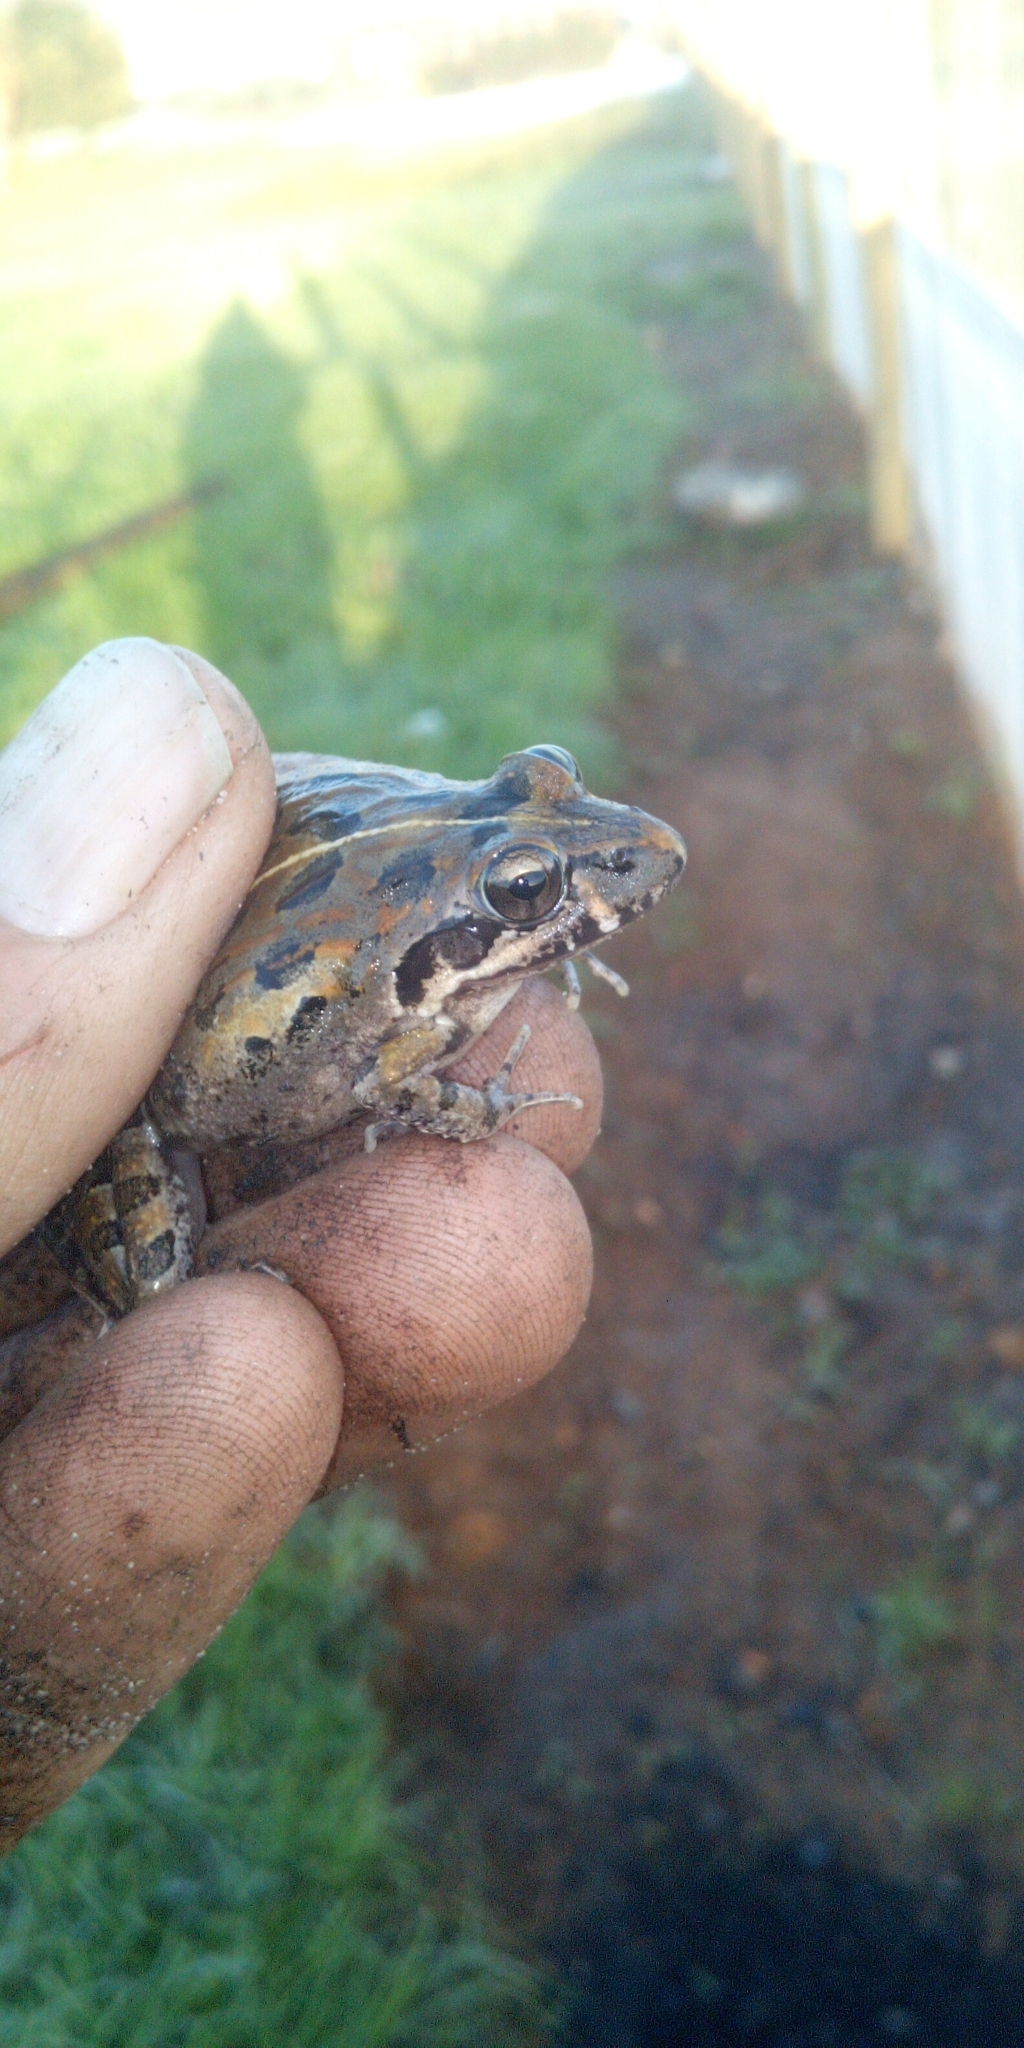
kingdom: Animalia
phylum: Chordata
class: Amphibia
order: Anura
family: Pyxicephalidae
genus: Strongylopus
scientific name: Strongylopus grayii
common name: Gray's stream frog
